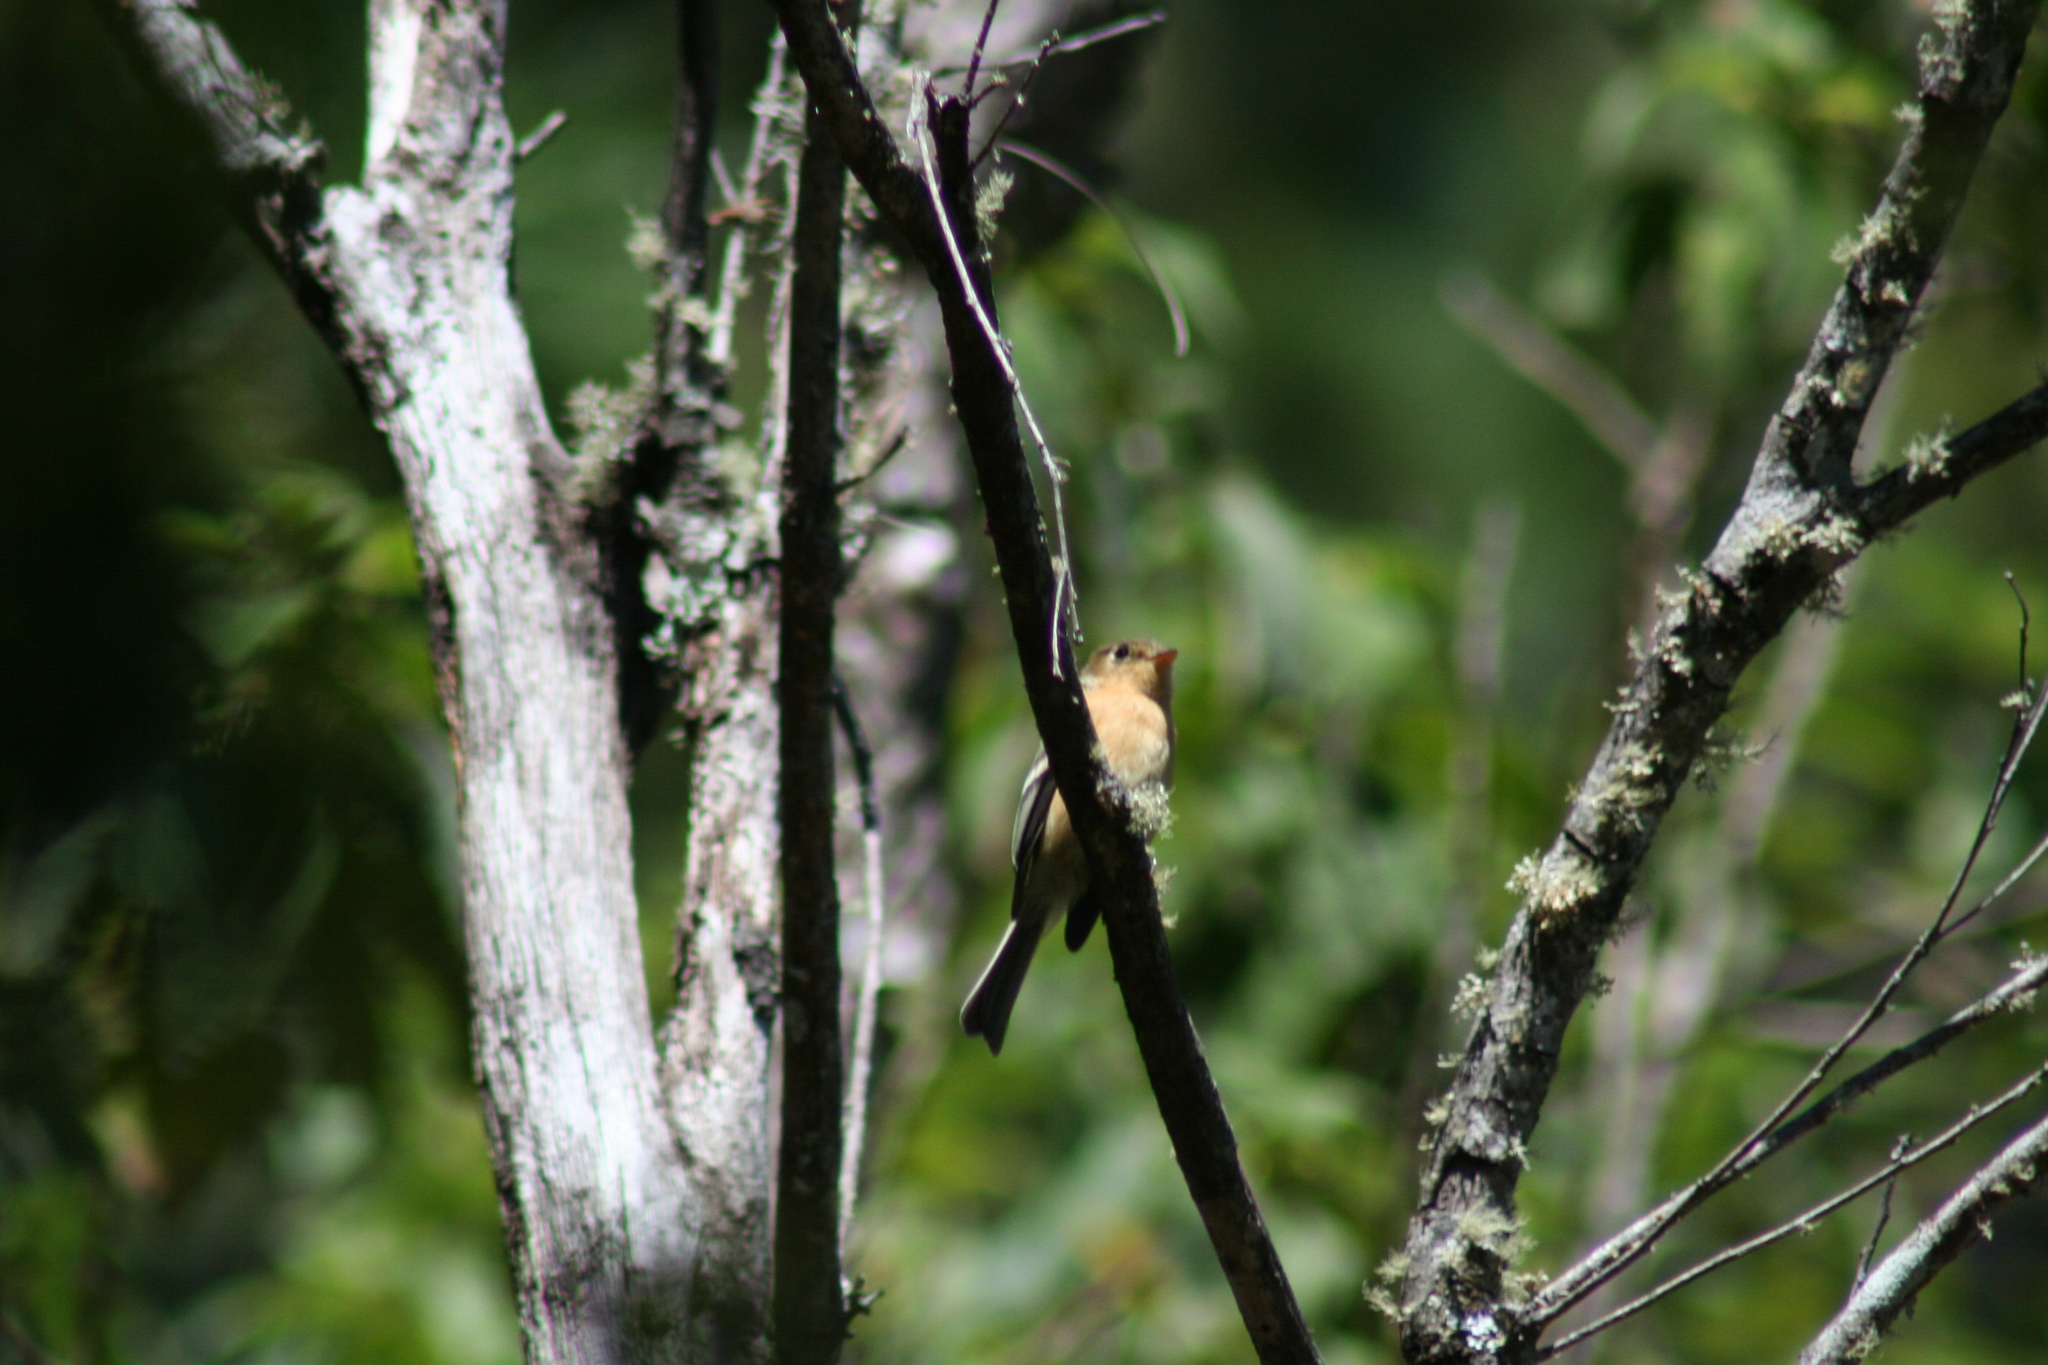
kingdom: Animalia
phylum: Chordata
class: Aves
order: Passeriformes
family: Tyrannidae
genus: Empidonax
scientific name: Empidonax fulvifrons
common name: Buff-breasted flycatcher
